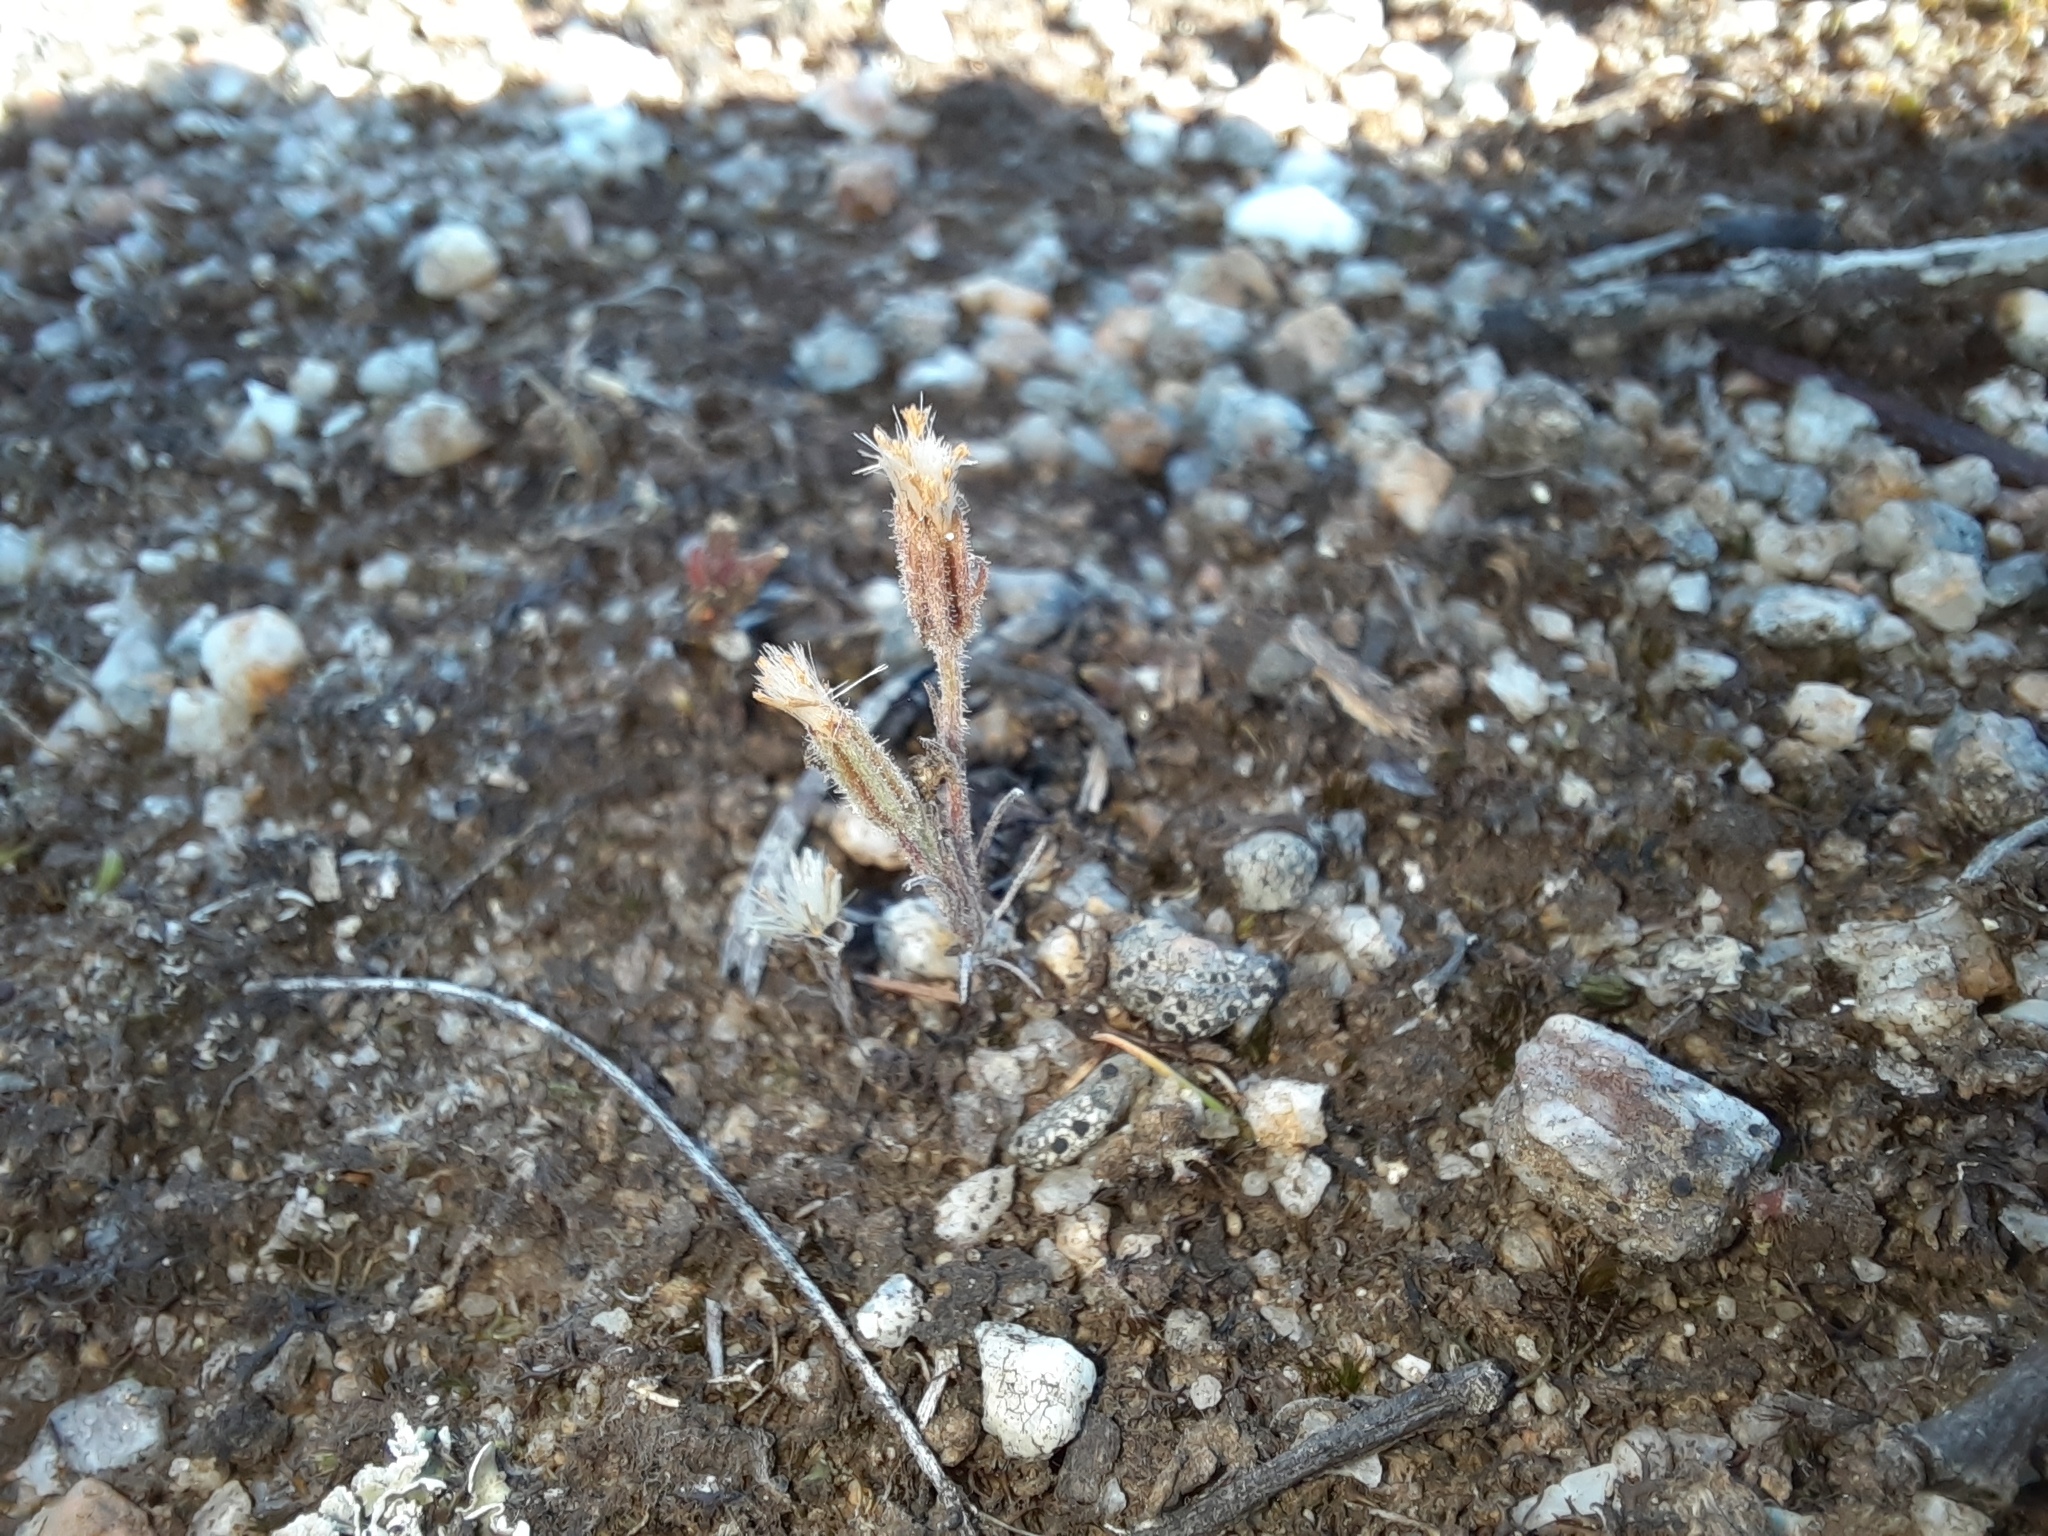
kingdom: Plantae
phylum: Tracheophyta
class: Magnoliopsida
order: Asterales
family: Asteraceae
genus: Millotia
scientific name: Millotia tenuifolia
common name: Soft millotia
